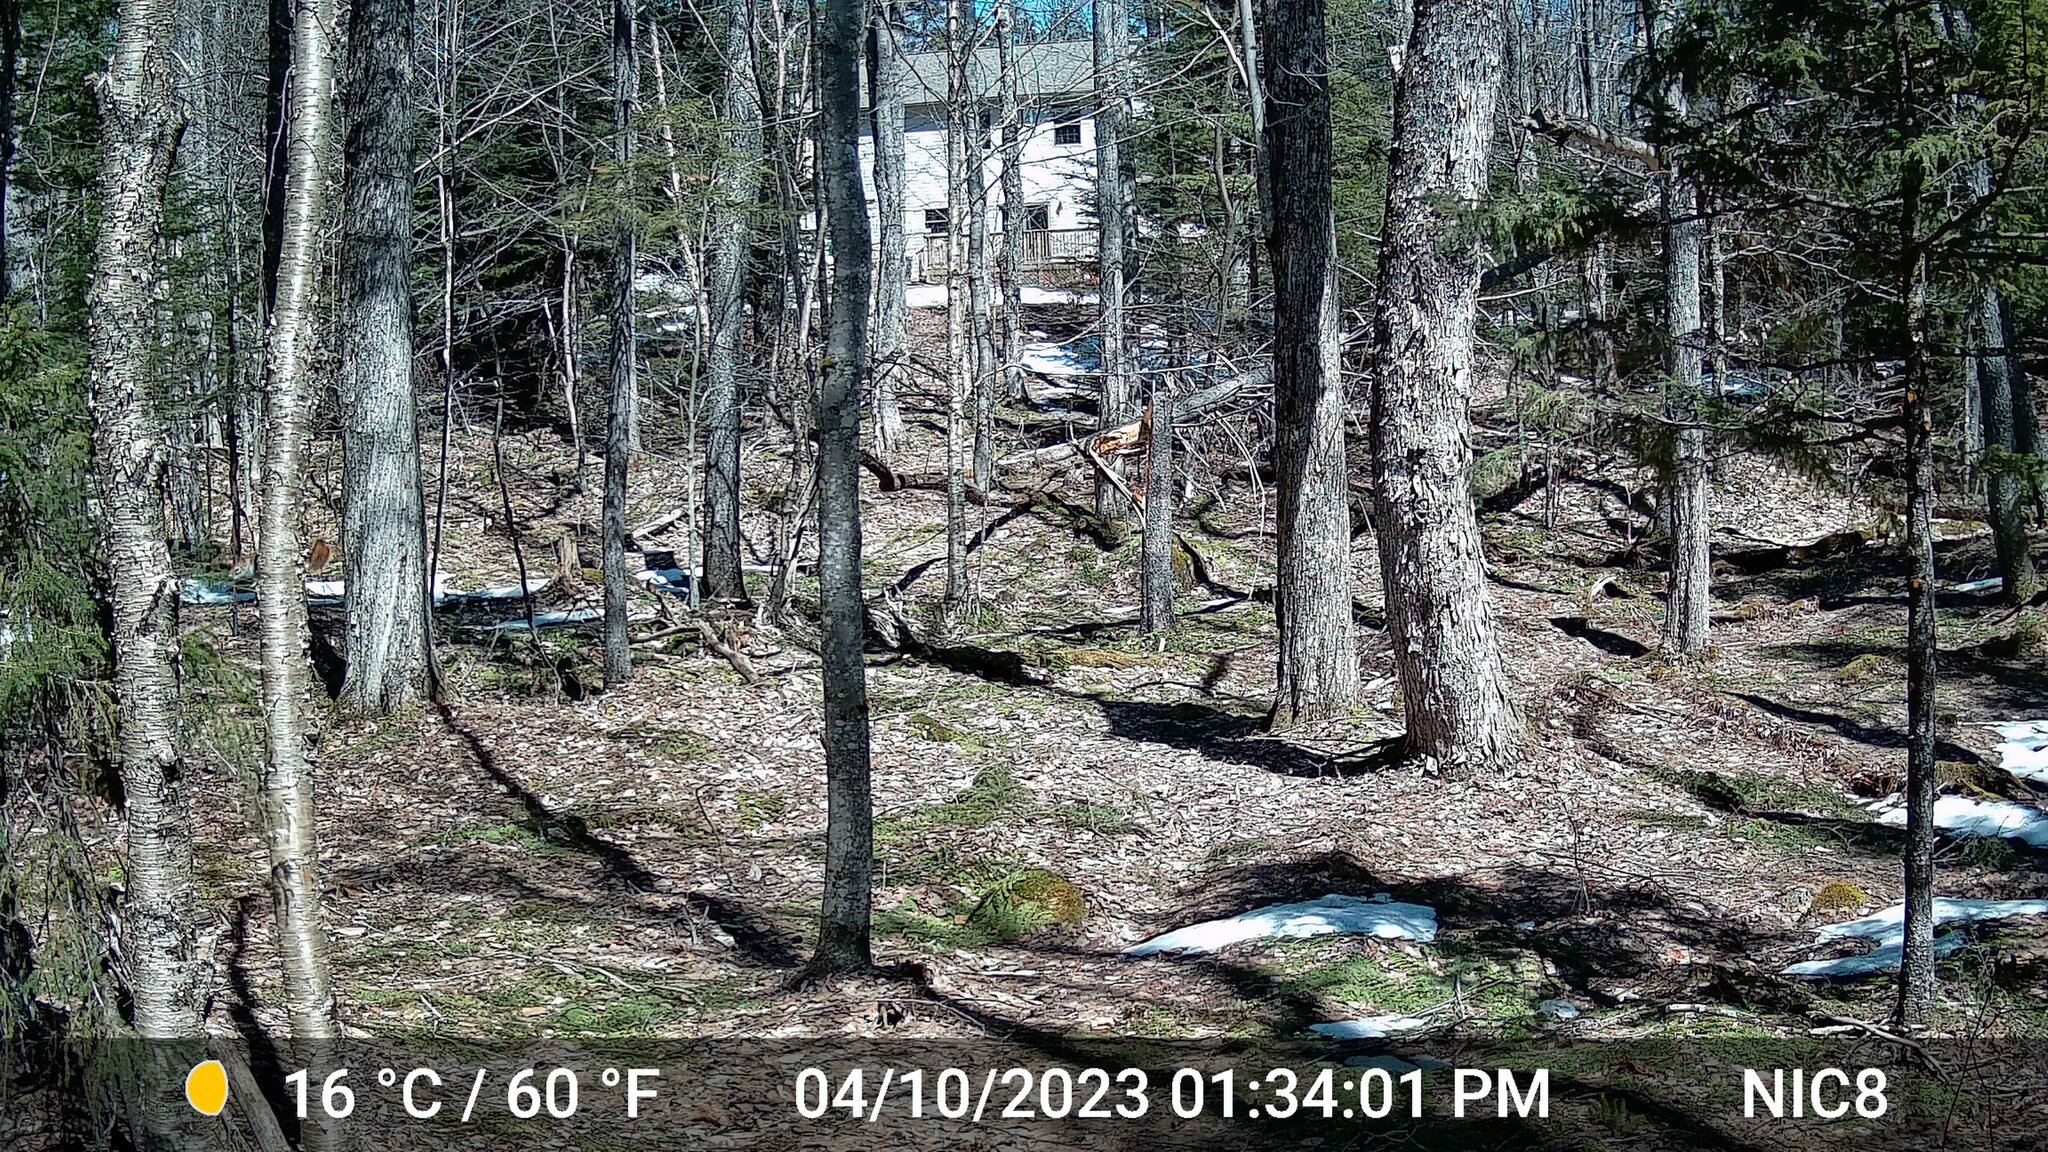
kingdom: Animalia
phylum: Chordata
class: Mammalia
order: Rodentia
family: Sciuridae
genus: Tamiasciurus
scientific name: Tamiasciurus hudsonicus
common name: Red squirrel
